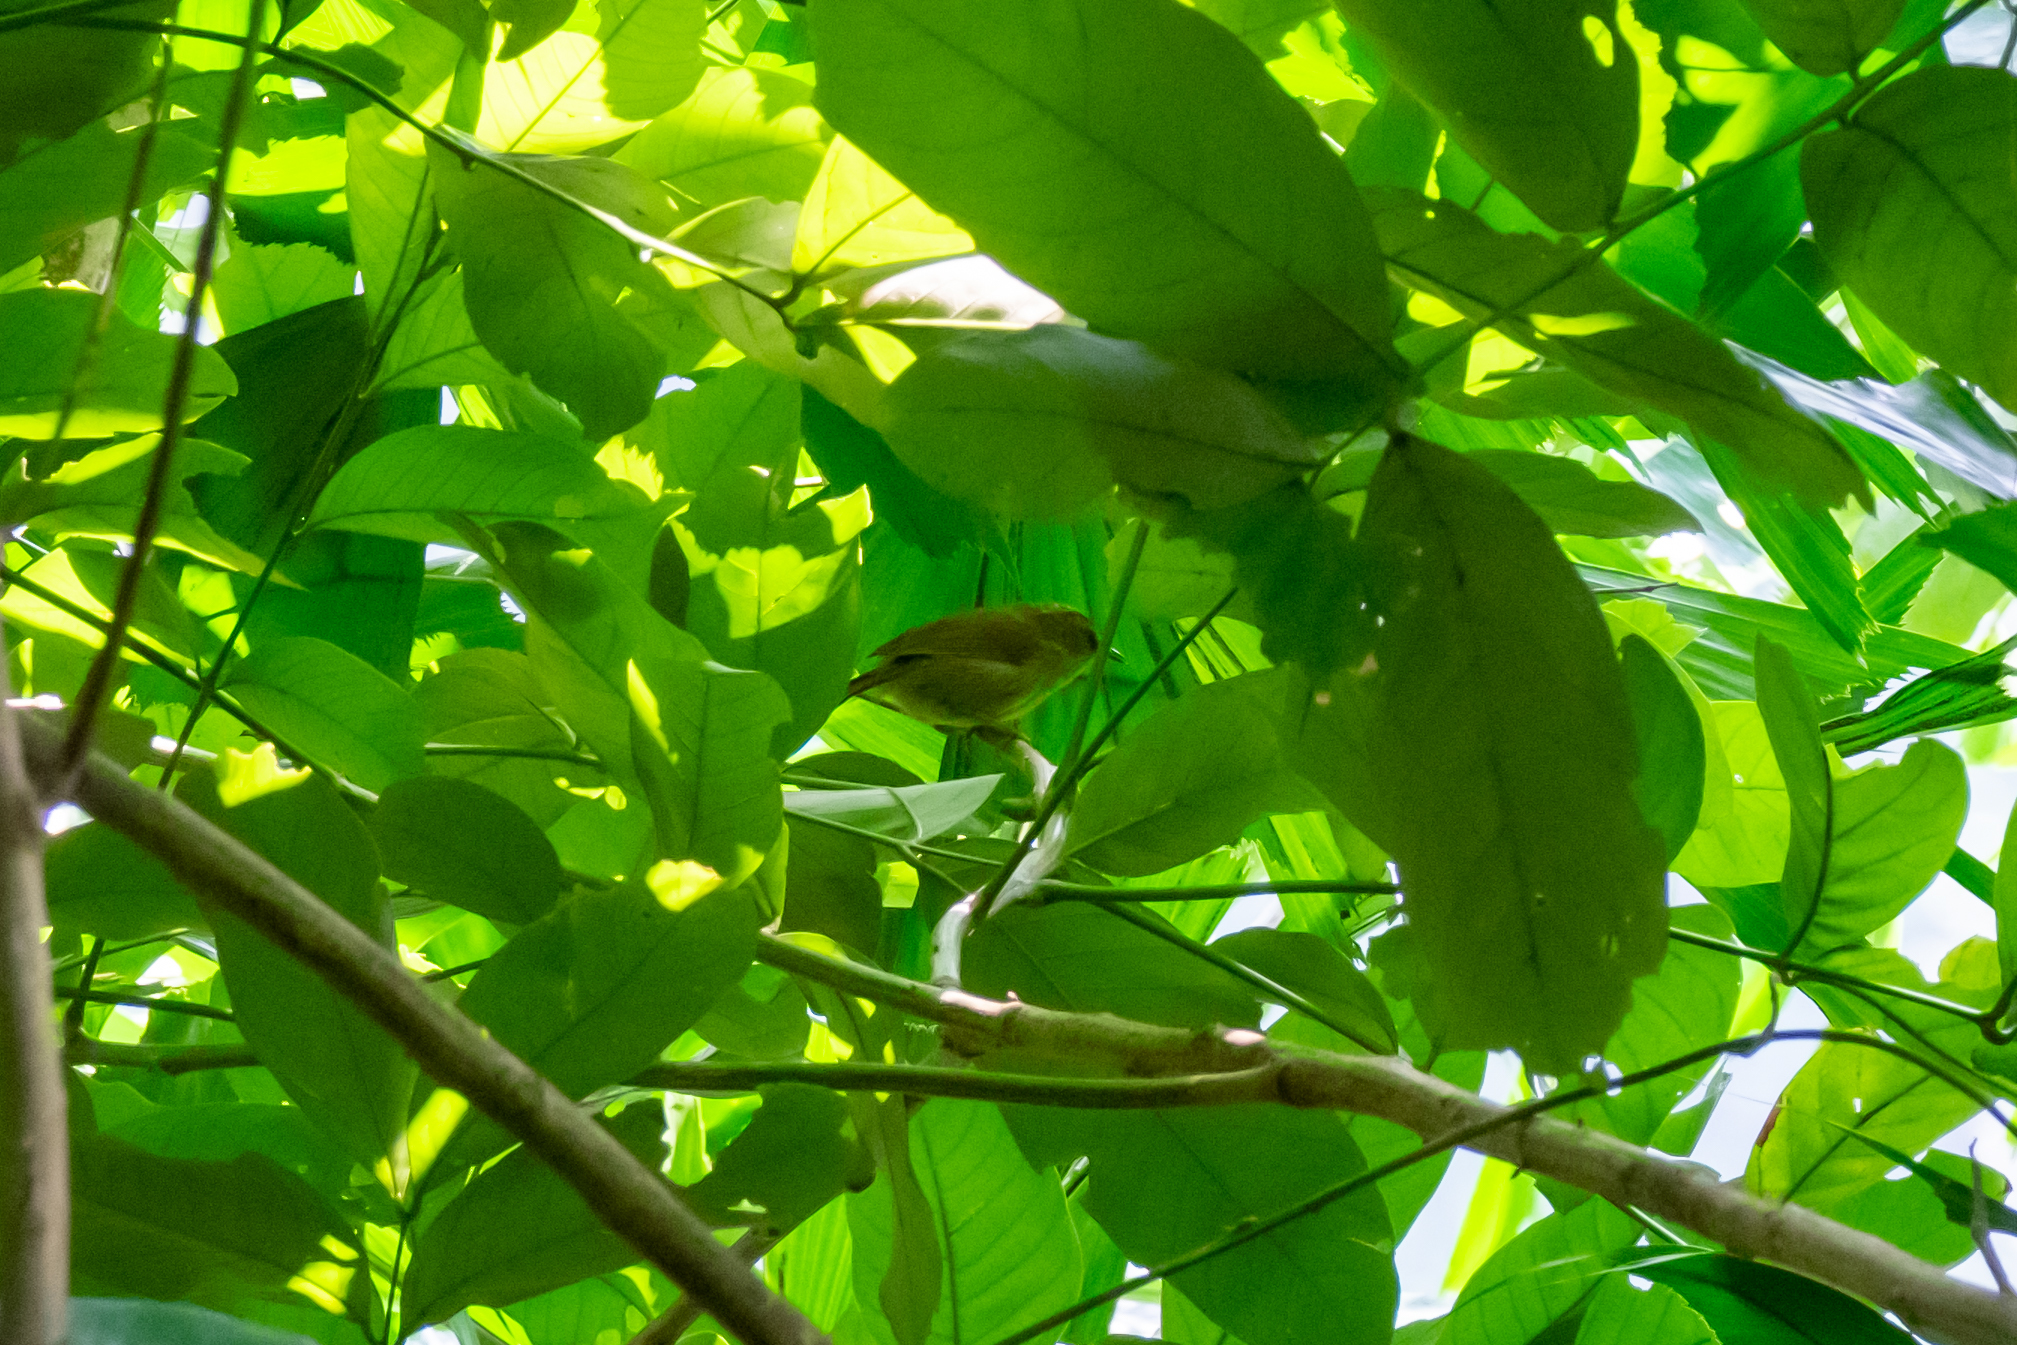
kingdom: Animalia
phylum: Chordata
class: Aves
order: Passeriformes
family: Timaliidae
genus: Macronus
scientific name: Macronus gularis
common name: Striped tit-babbler
